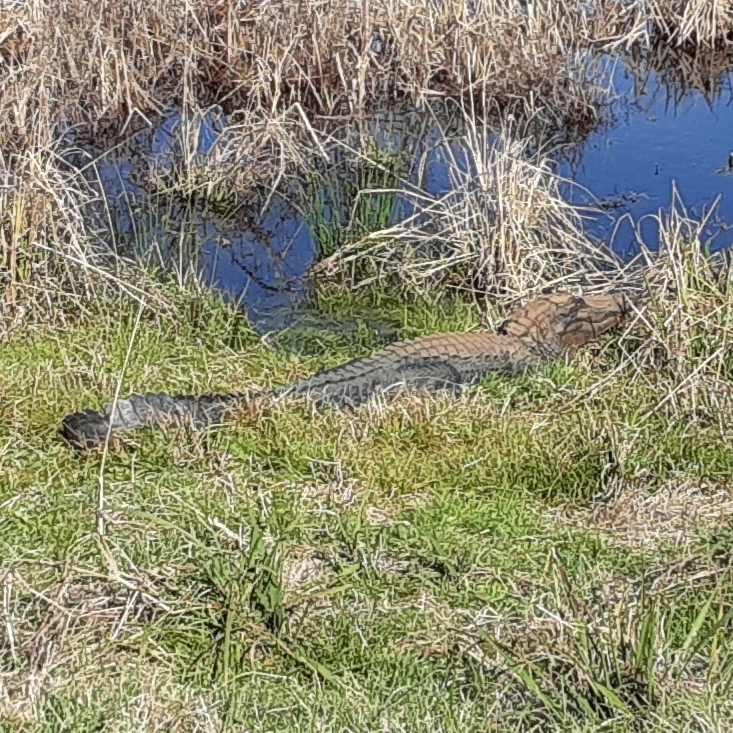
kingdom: Animalia
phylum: Chordata
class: Crocodylia
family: Alligatoridae
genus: Alligator
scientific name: Alligator mississippiensis
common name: American alligator
